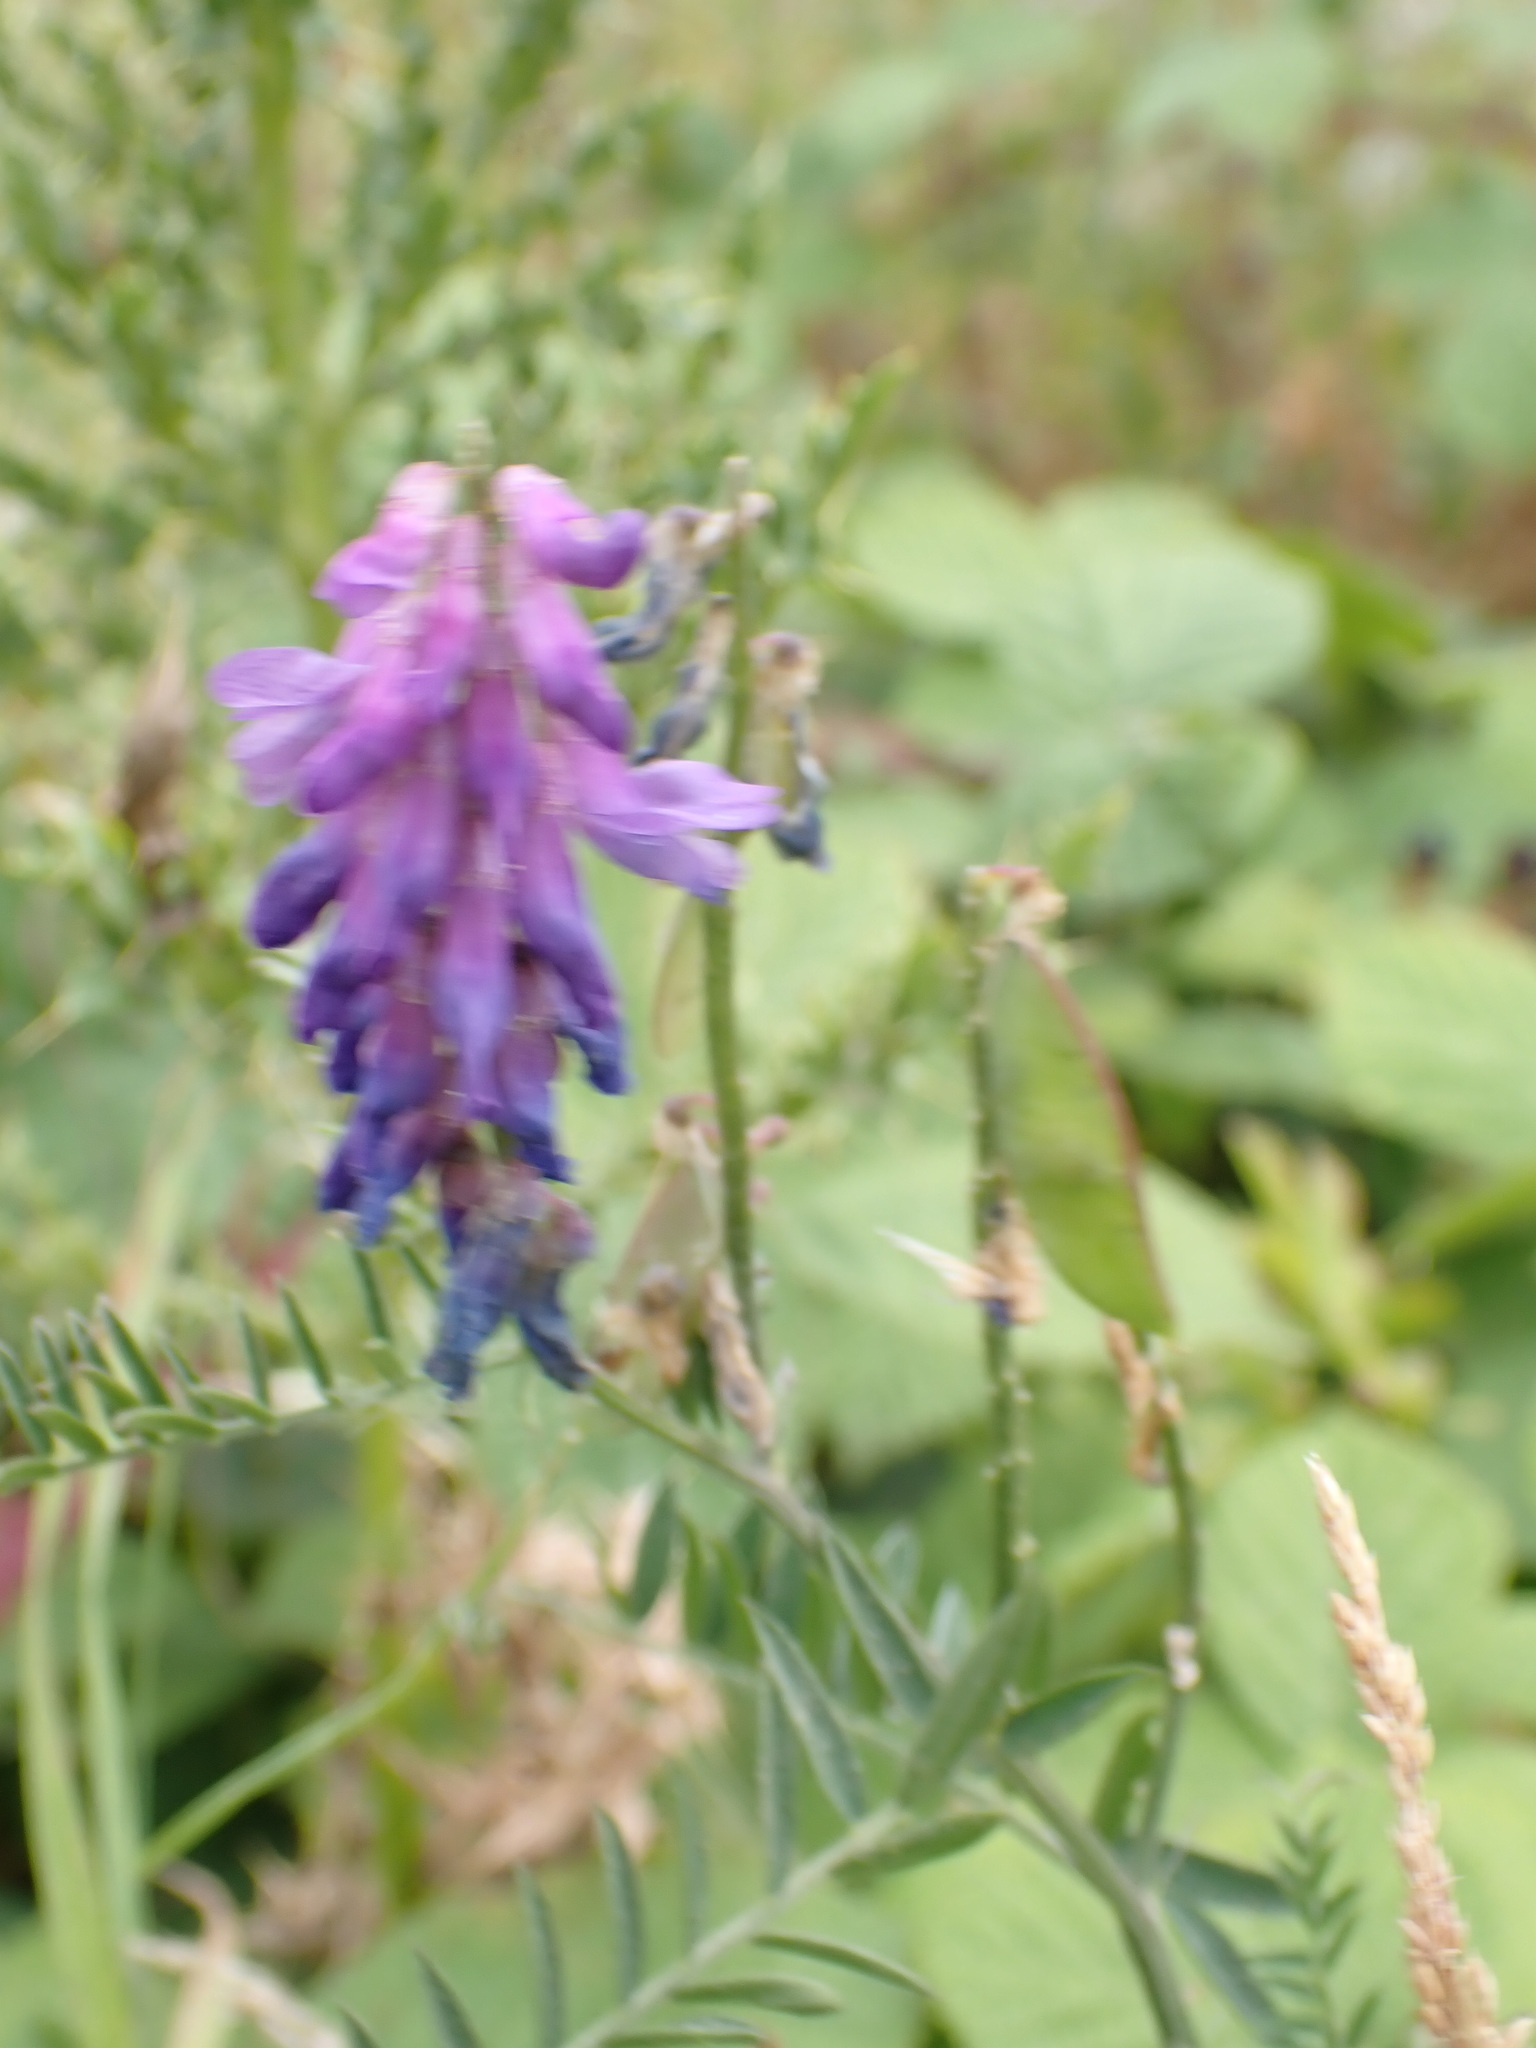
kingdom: Plantae
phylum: Tracheophyta
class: Magnoliopsida
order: Fabales
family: Fabaceae
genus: Vicia
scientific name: Vicia cracca
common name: Bird vetch
